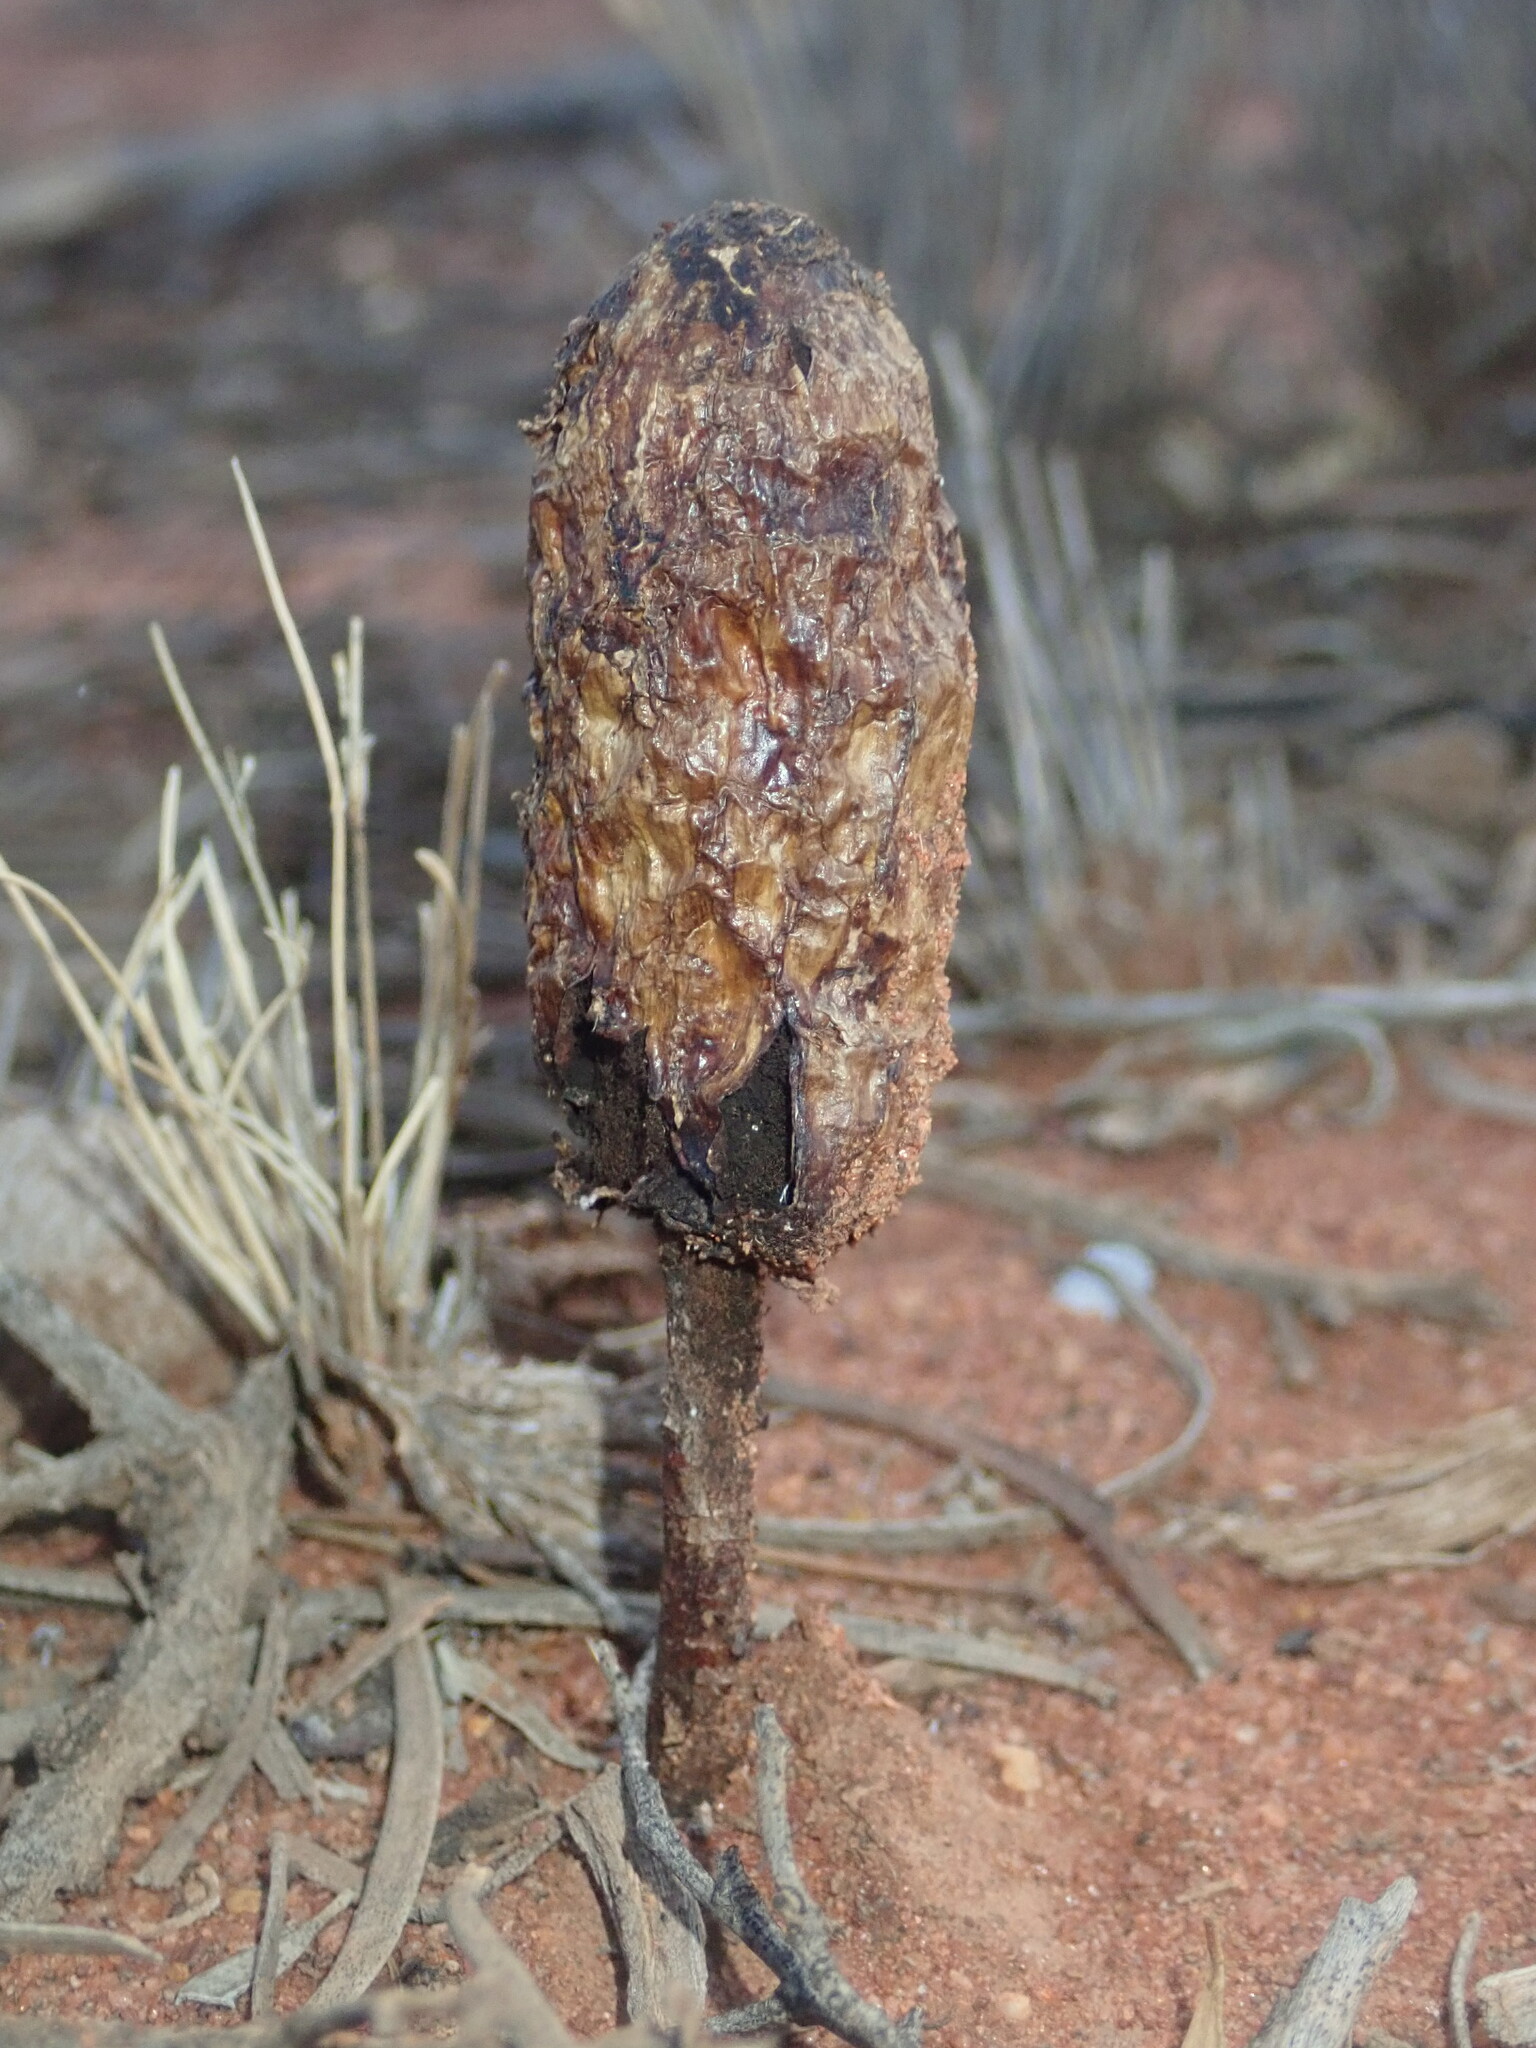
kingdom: Fungi
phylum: Basidiomycota
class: Agaricomycetes
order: Agaricales
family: Agaricaceae
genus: Podaxis
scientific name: Podaxis pistillaris
